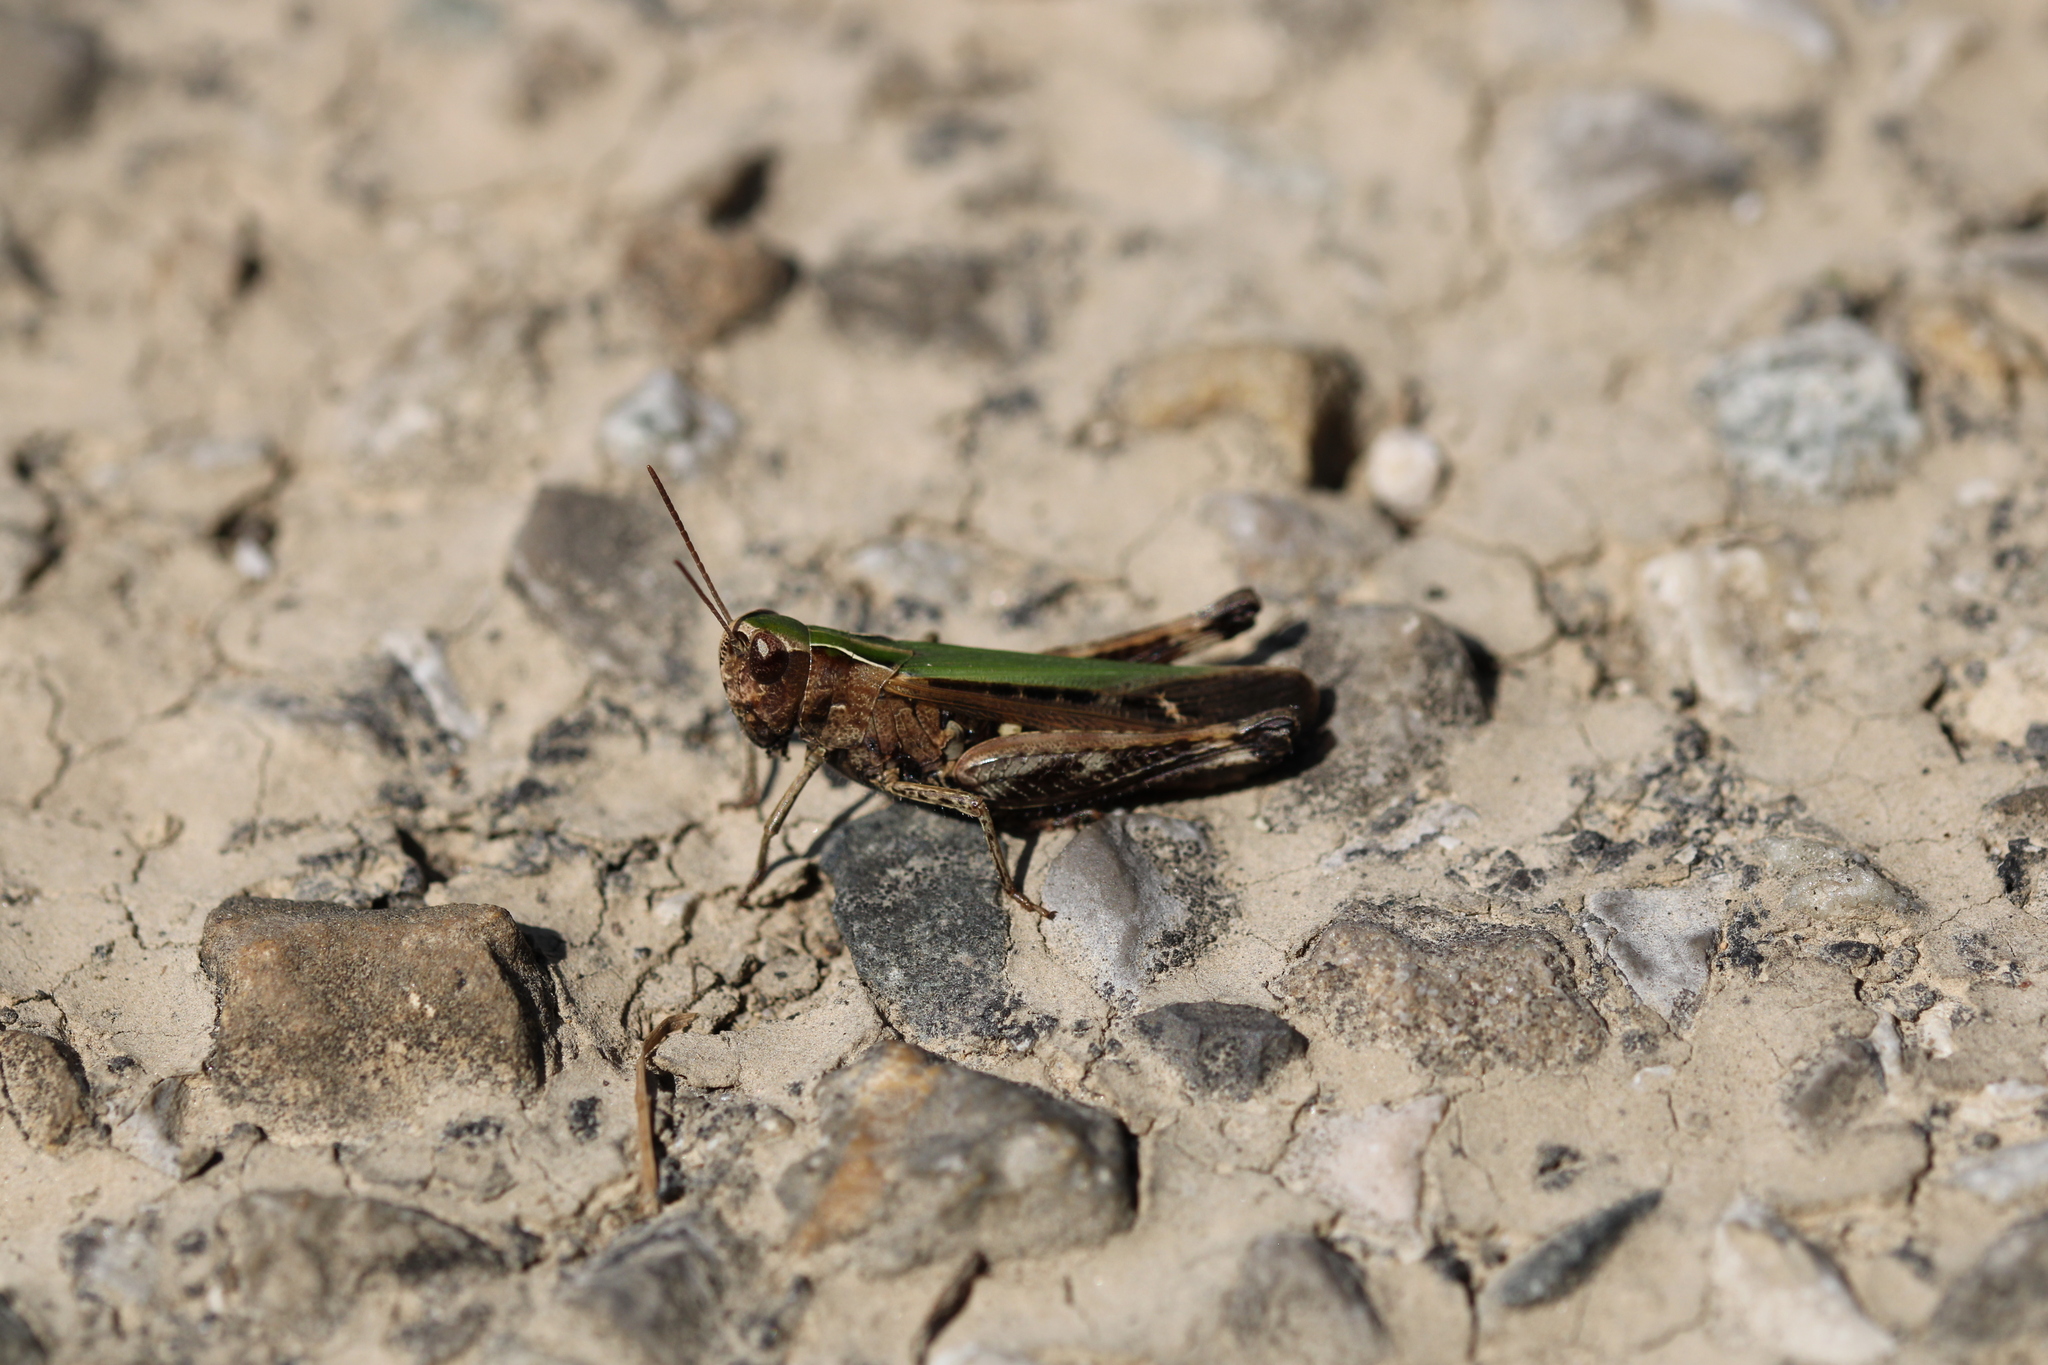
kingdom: Animalia
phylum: Arthropoda
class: Insecta
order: Orthoptera
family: Acrididae
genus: Omocestus
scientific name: Omocestus rufipes
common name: Woodland grasshopper
